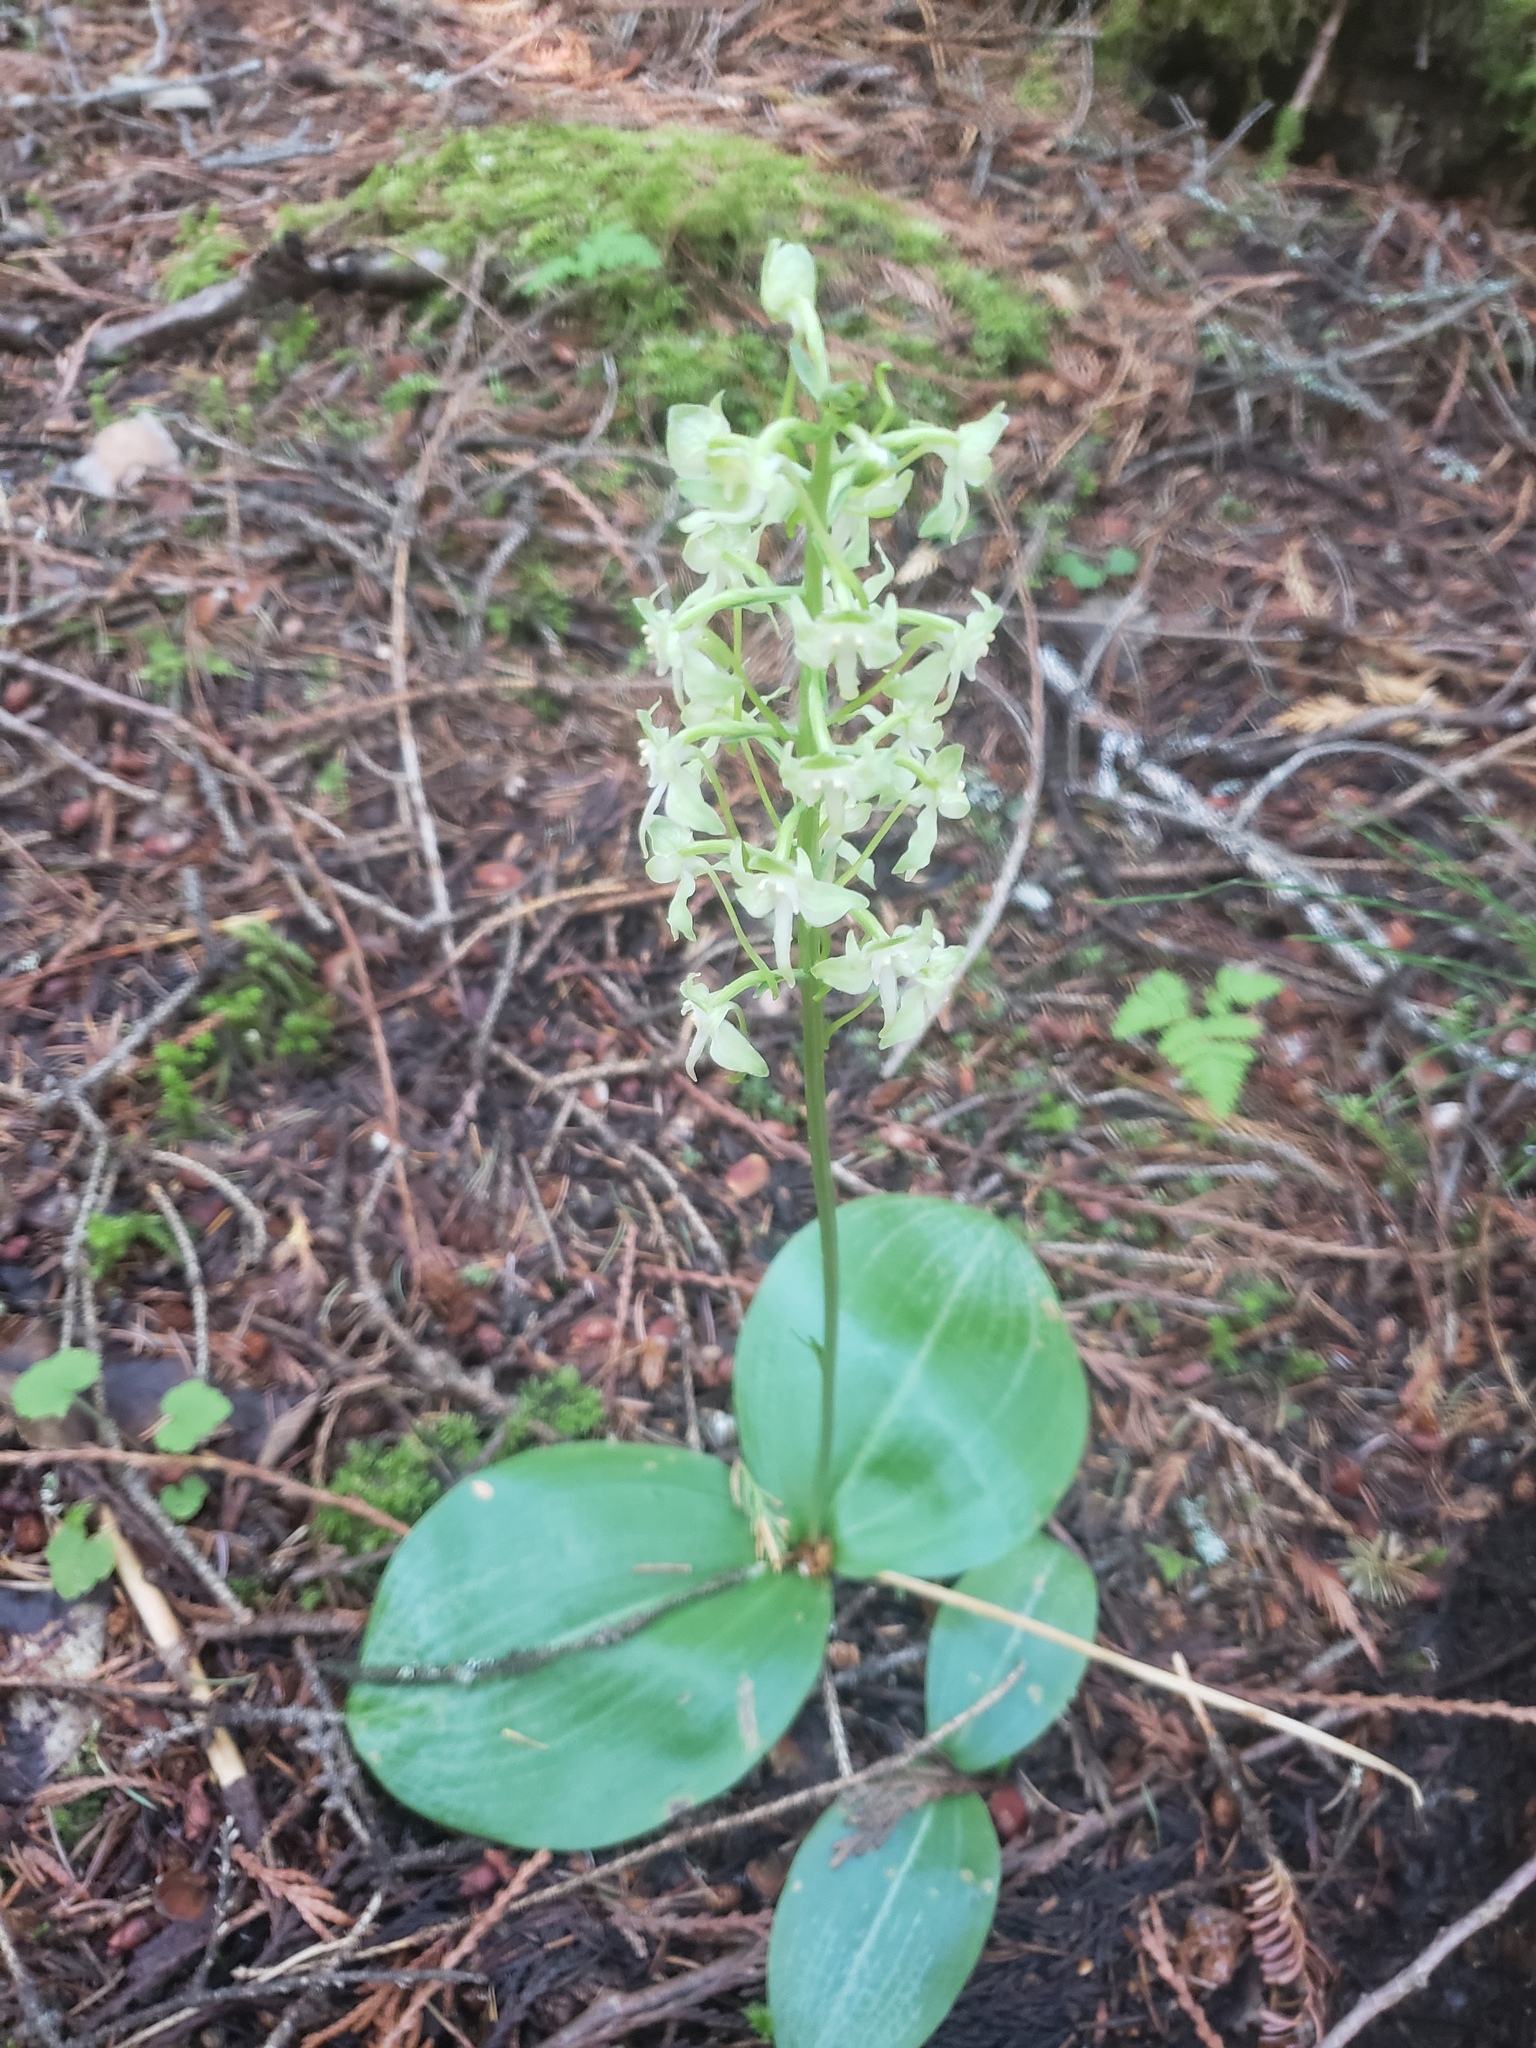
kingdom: Plantae
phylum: Tracheophyta
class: Liliopsida
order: Asparagales
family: Orchidaceae
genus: Platanthera
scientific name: Platanthera orbiculata
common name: Large round-leaved orchid
